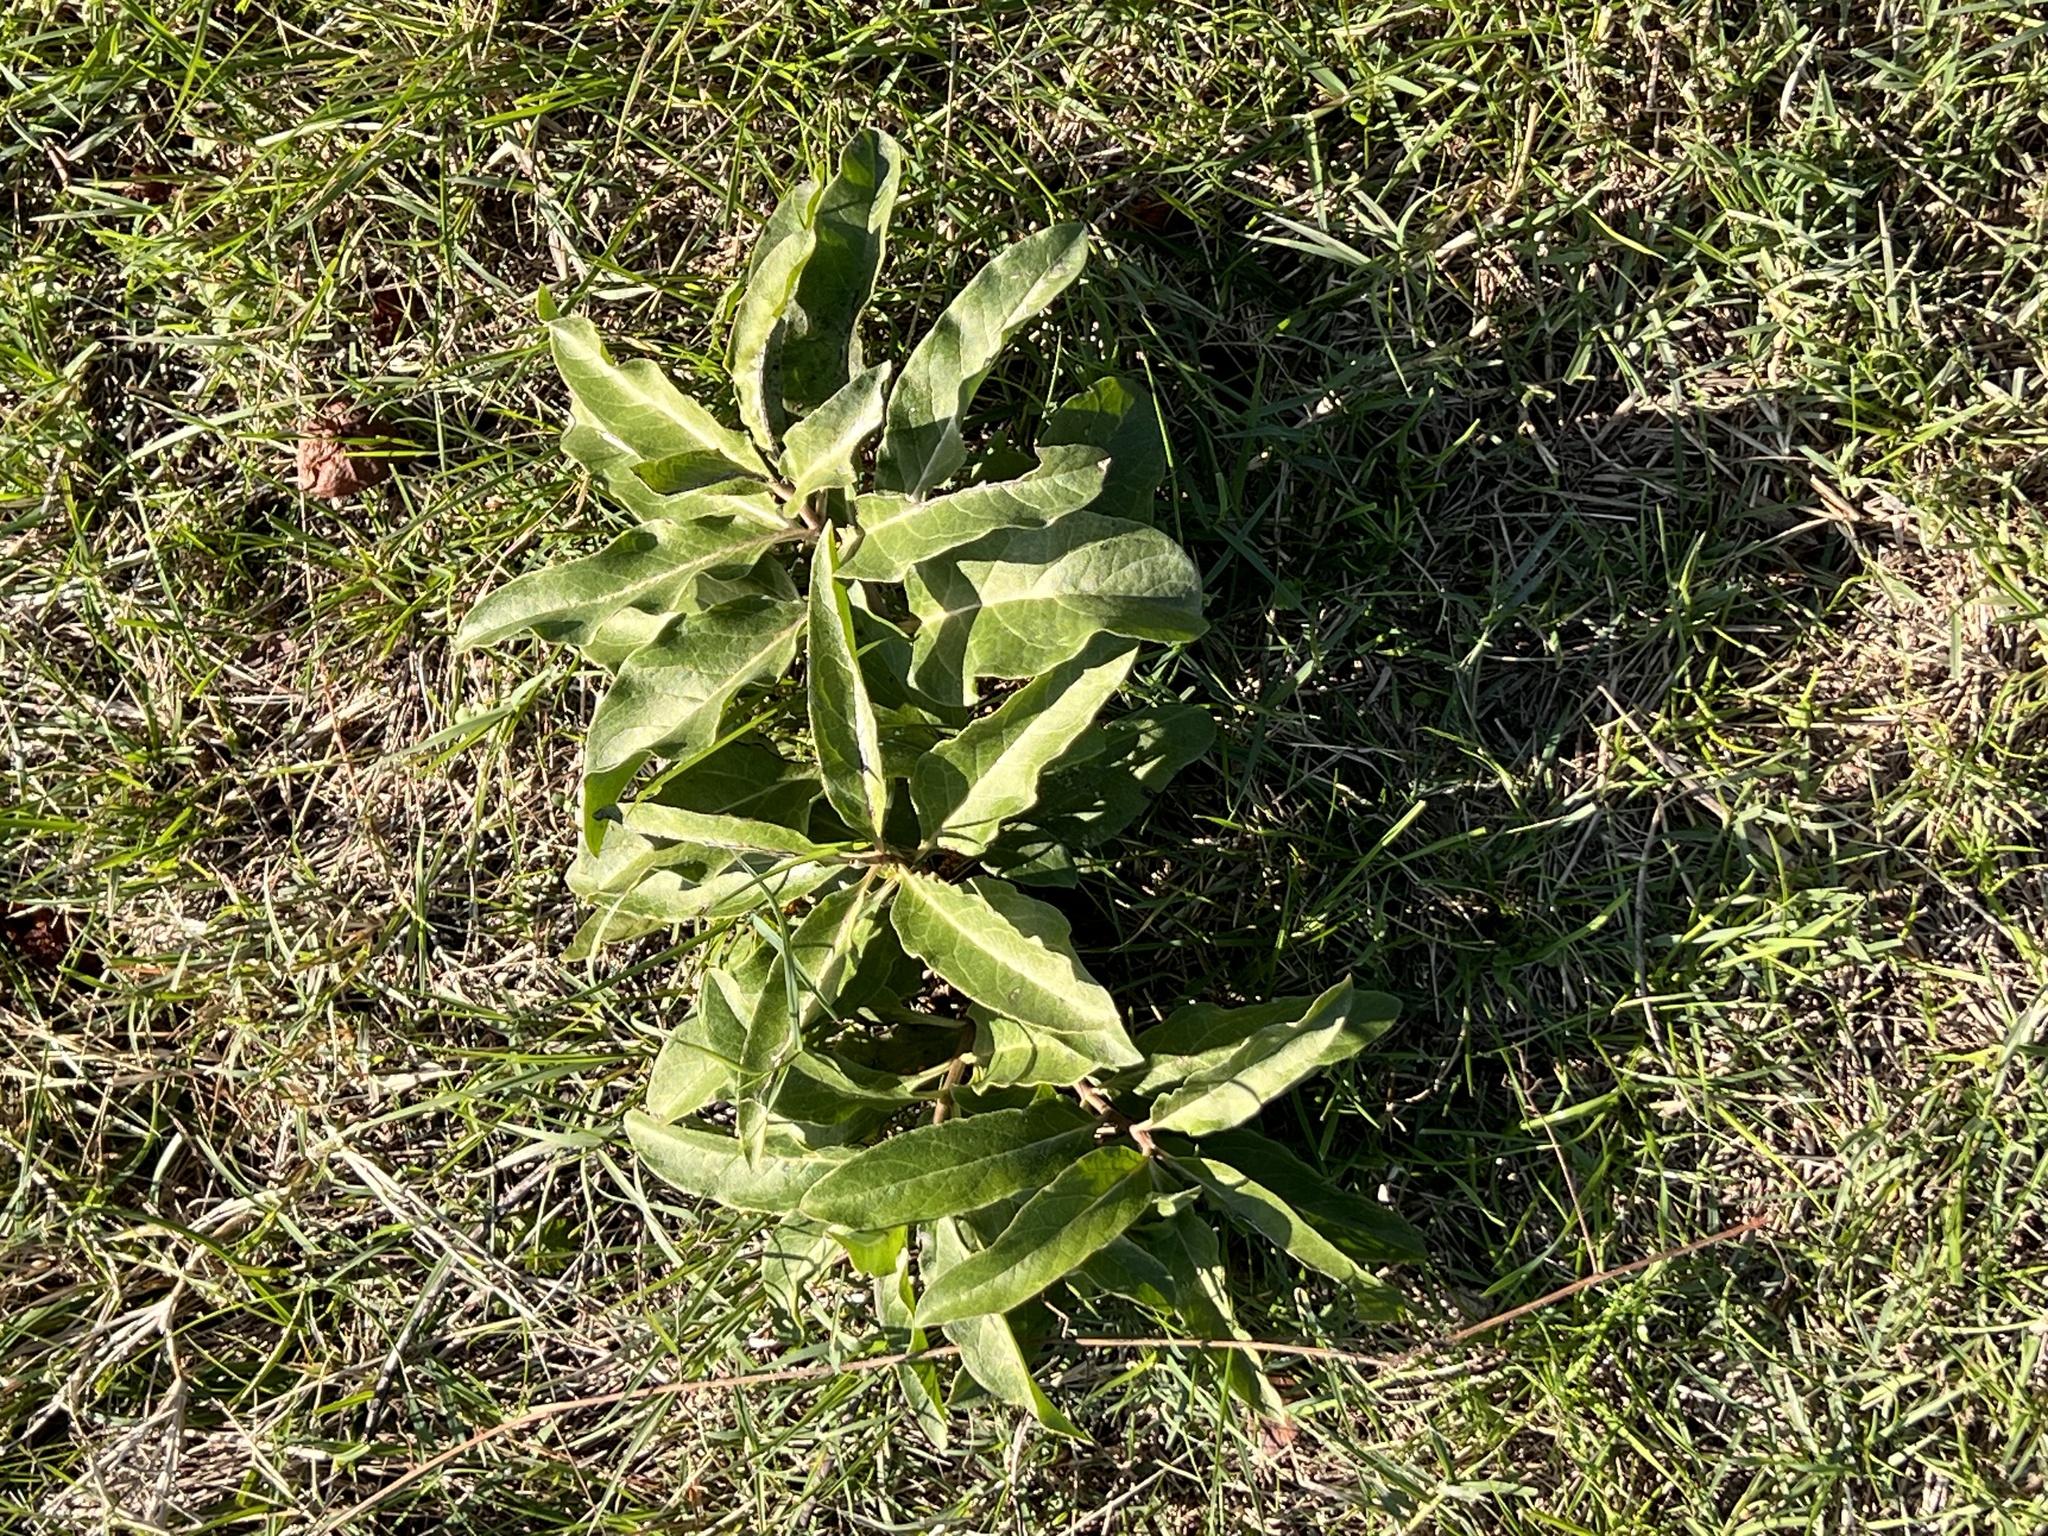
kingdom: Plantae
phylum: Tracheophyta
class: Magnoliopsida
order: Gentianales
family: Apocynaceae
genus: Asclepias
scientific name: Asclepias oenotheroides
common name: Zizotes milkweed
